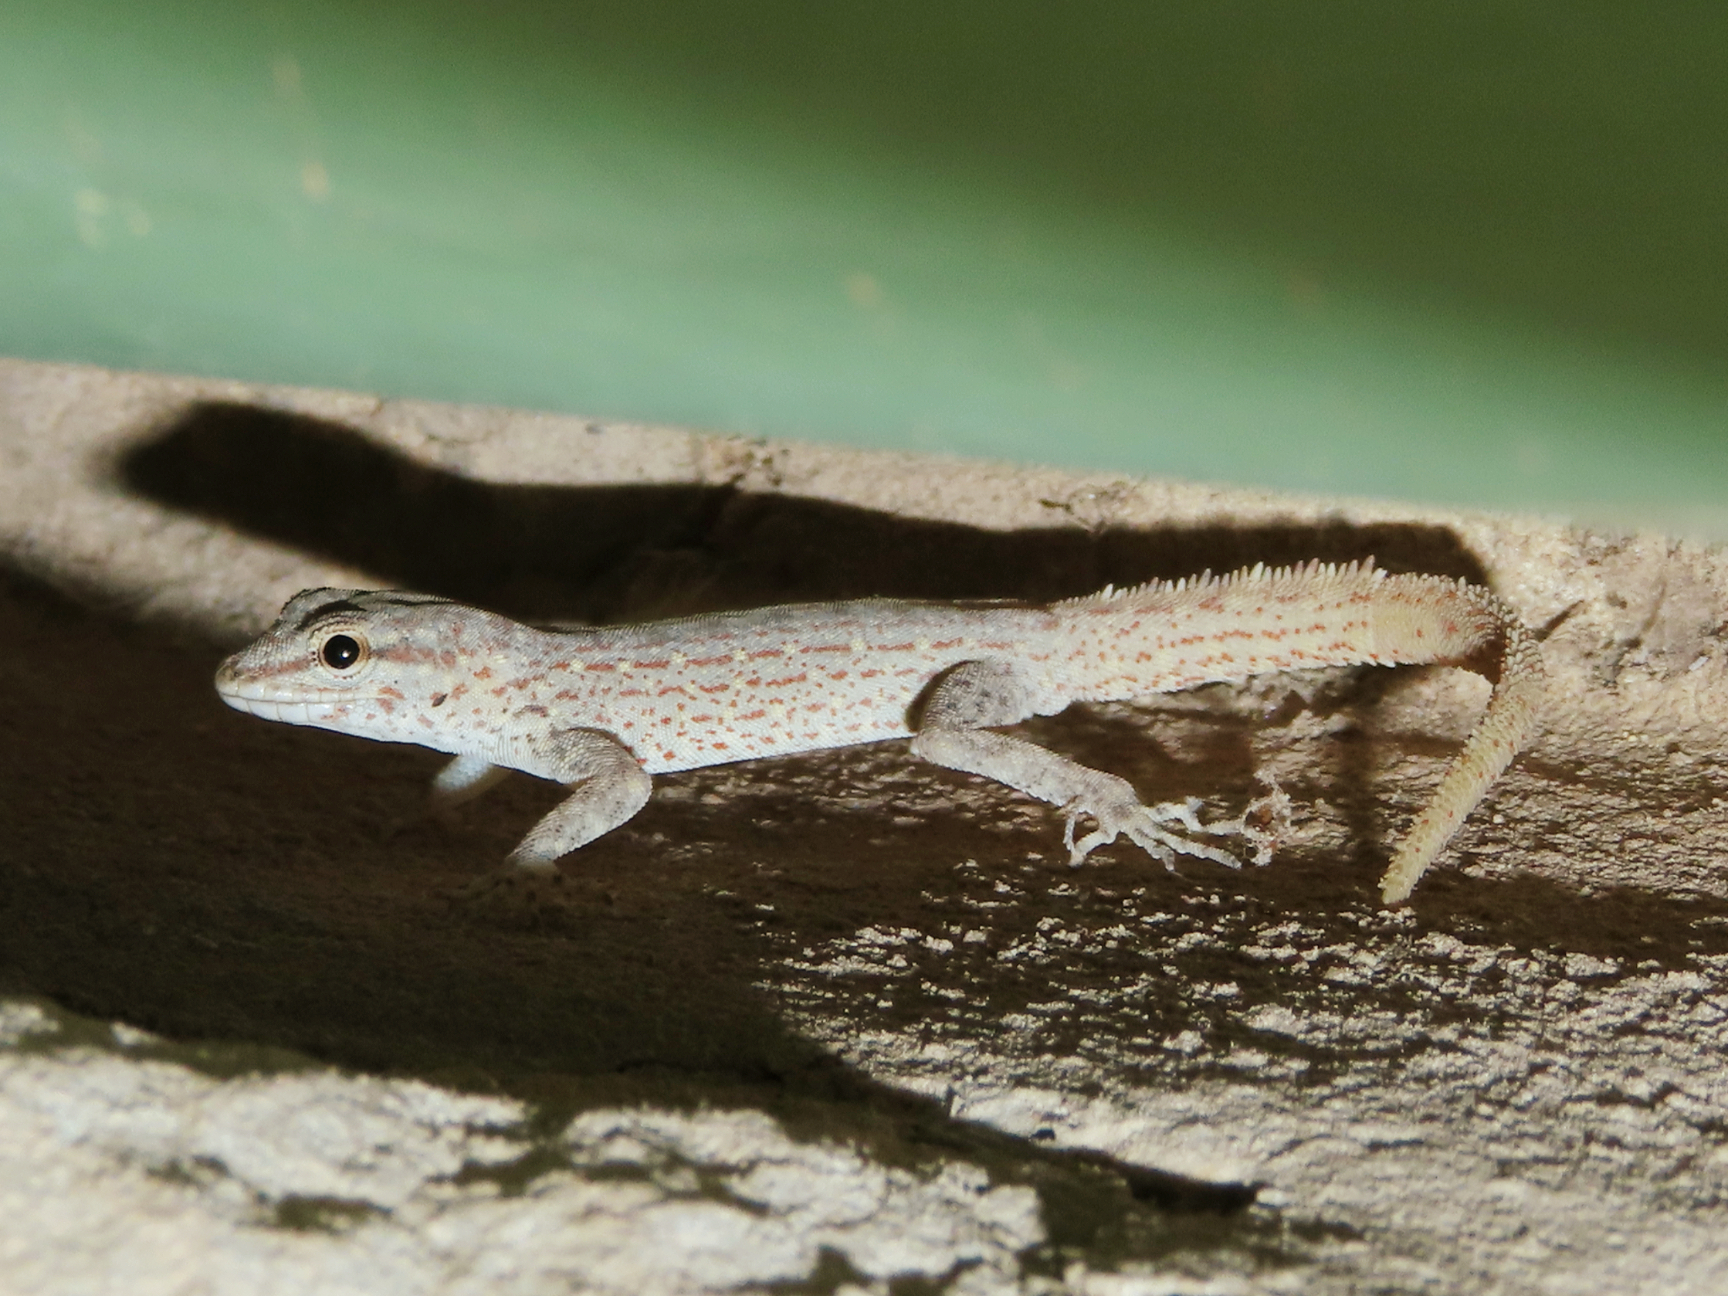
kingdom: Animalia
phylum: Chordata
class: Squamata
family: Sphaerodactylidae
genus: Pristurus
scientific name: Pristurus rupestris
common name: Blanford’s semaphore gecko
